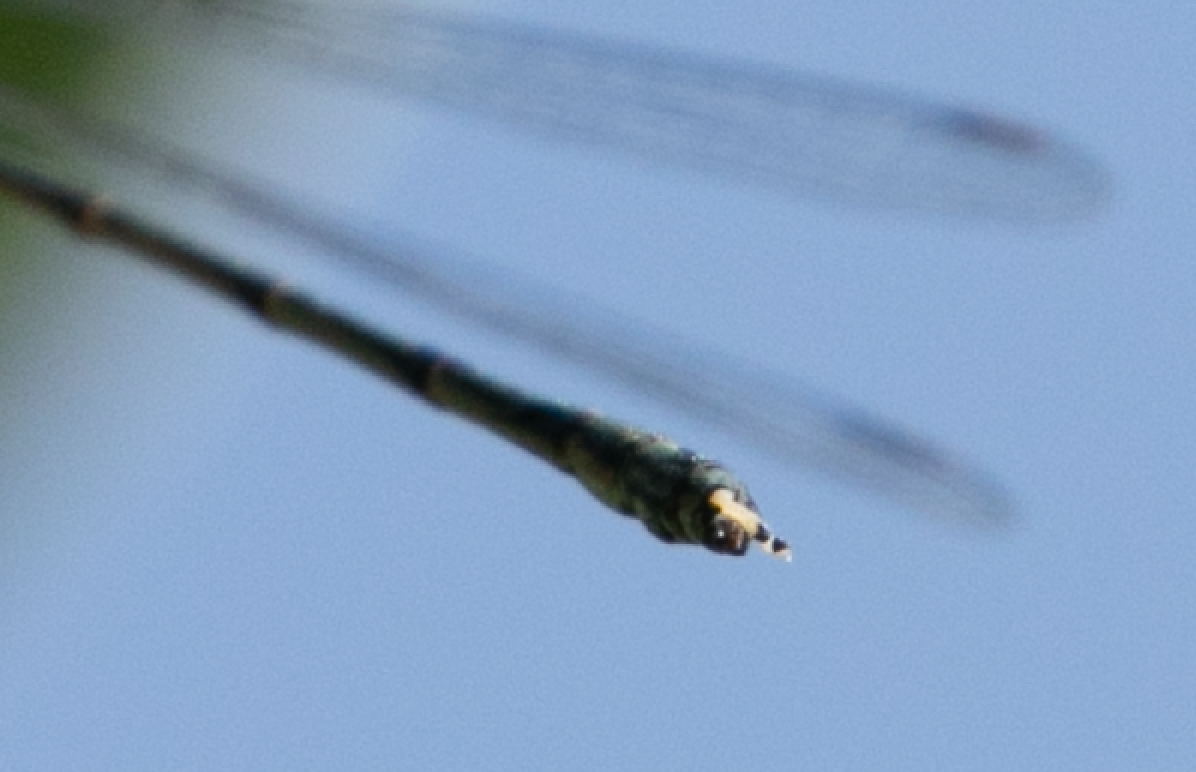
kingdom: Animalia
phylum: Arthropoda
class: Insecta
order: Odonata
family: Lestidae
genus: Chalcolestes
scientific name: Chalcolestes parvidens
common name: Eastern willow spreadwing
